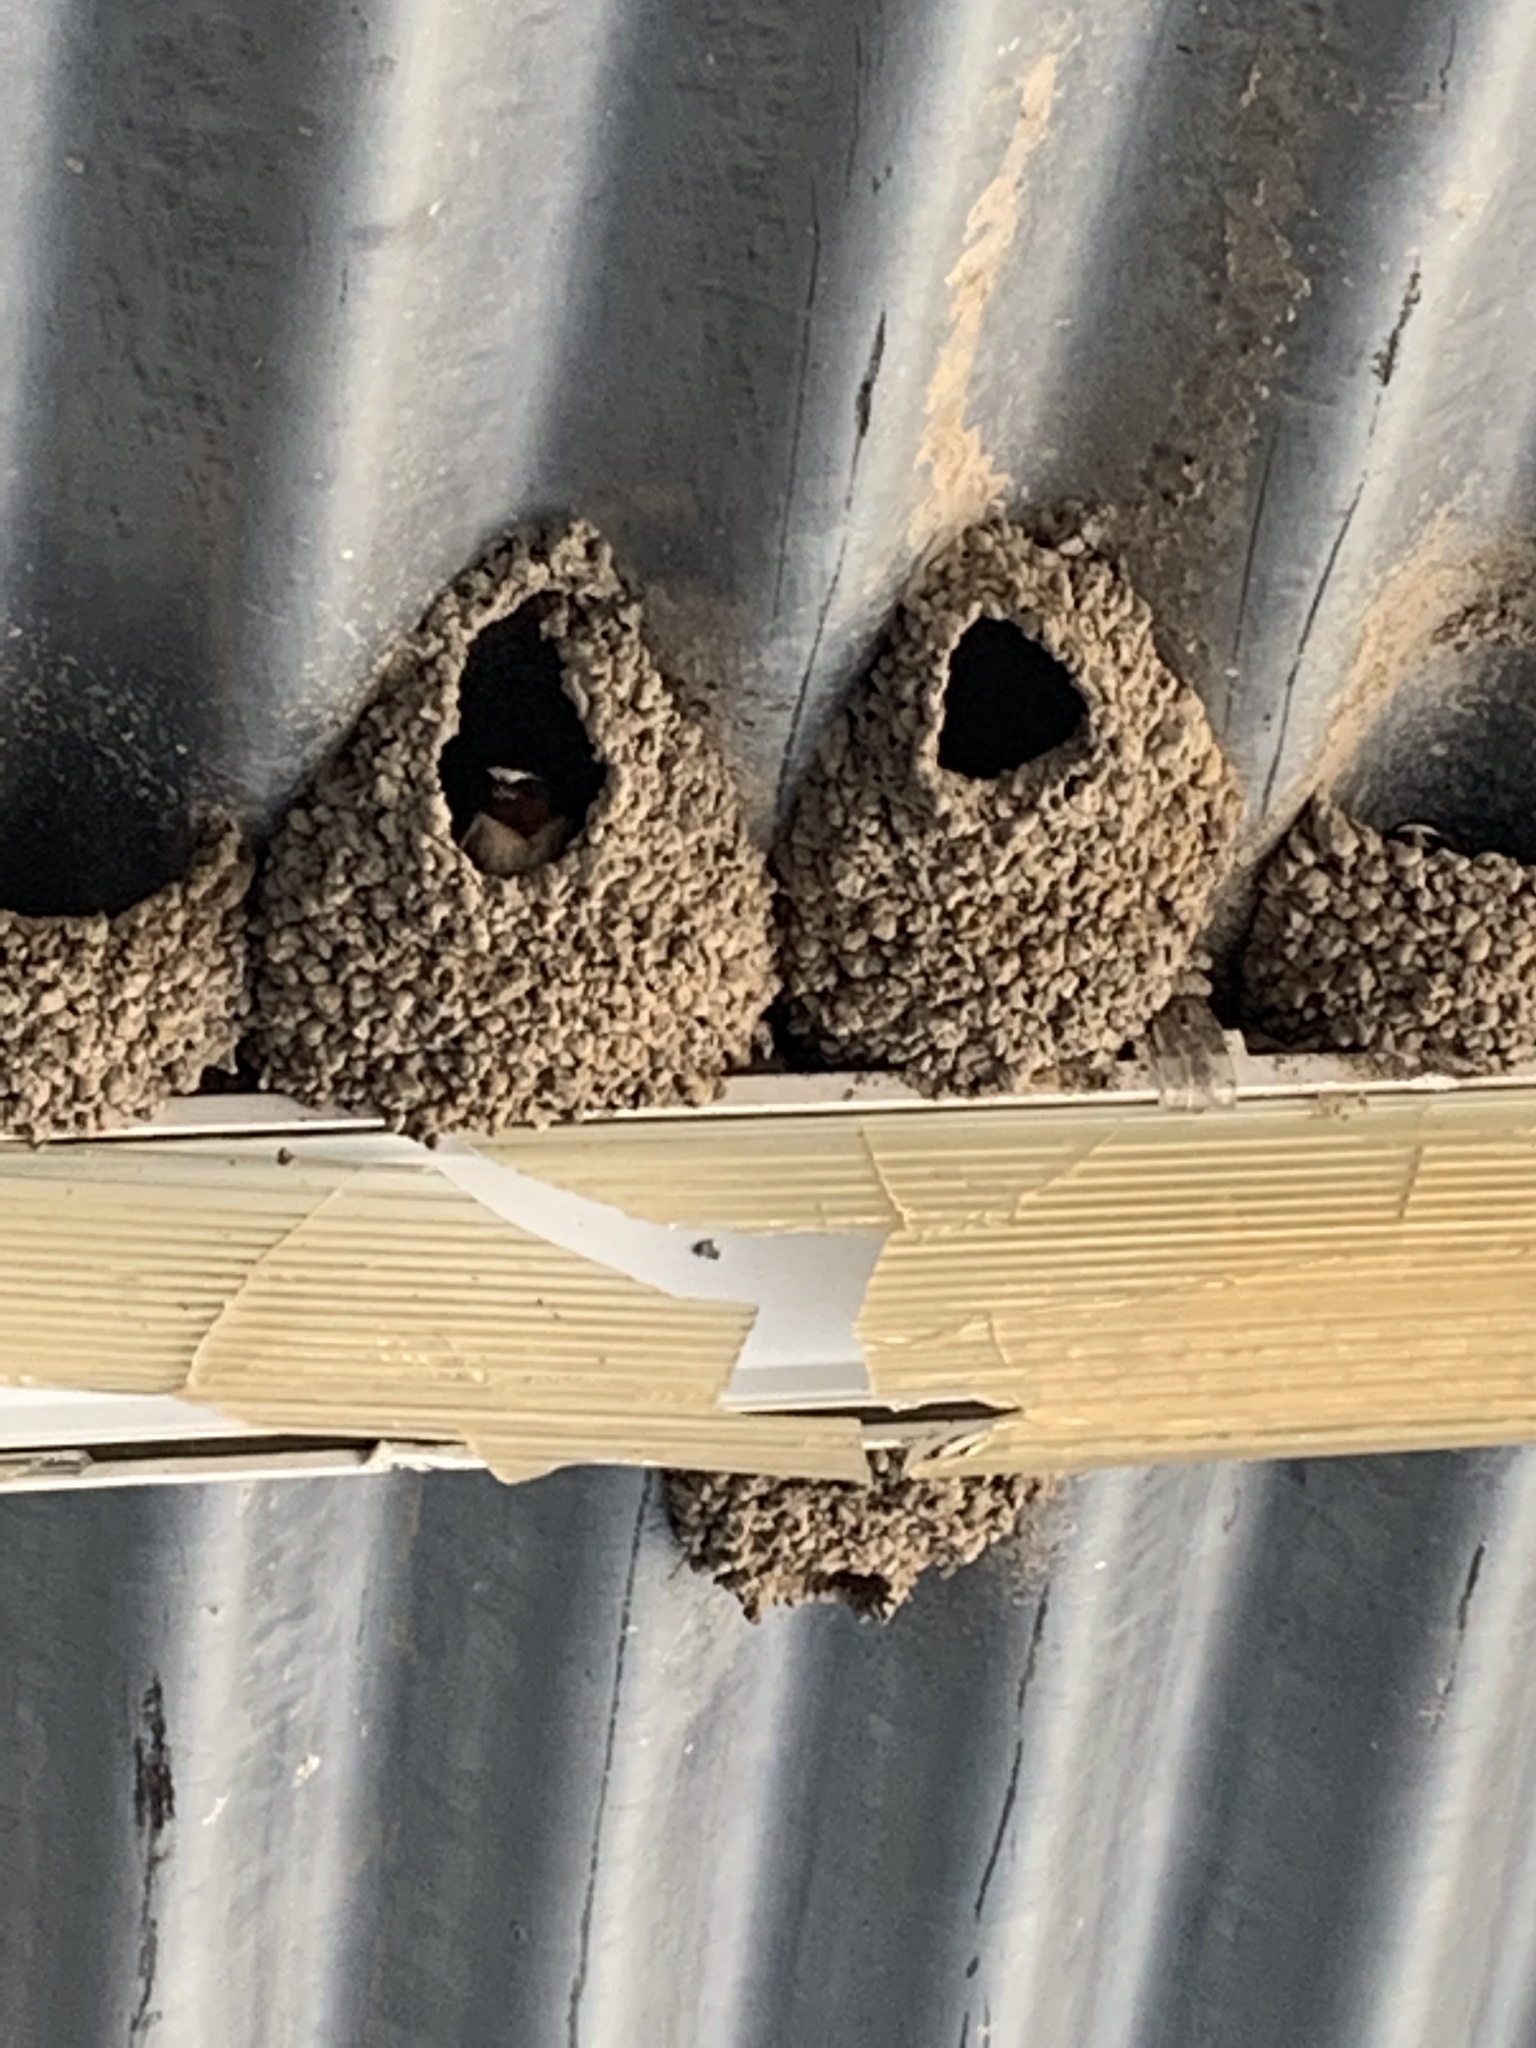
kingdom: Animalia
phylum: Chordata
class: Aves
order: Passeriformes
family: Hirundinidae
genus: Petrochelidon
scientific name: Petrochelidon pyrrhonota
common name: American cliff swallow
